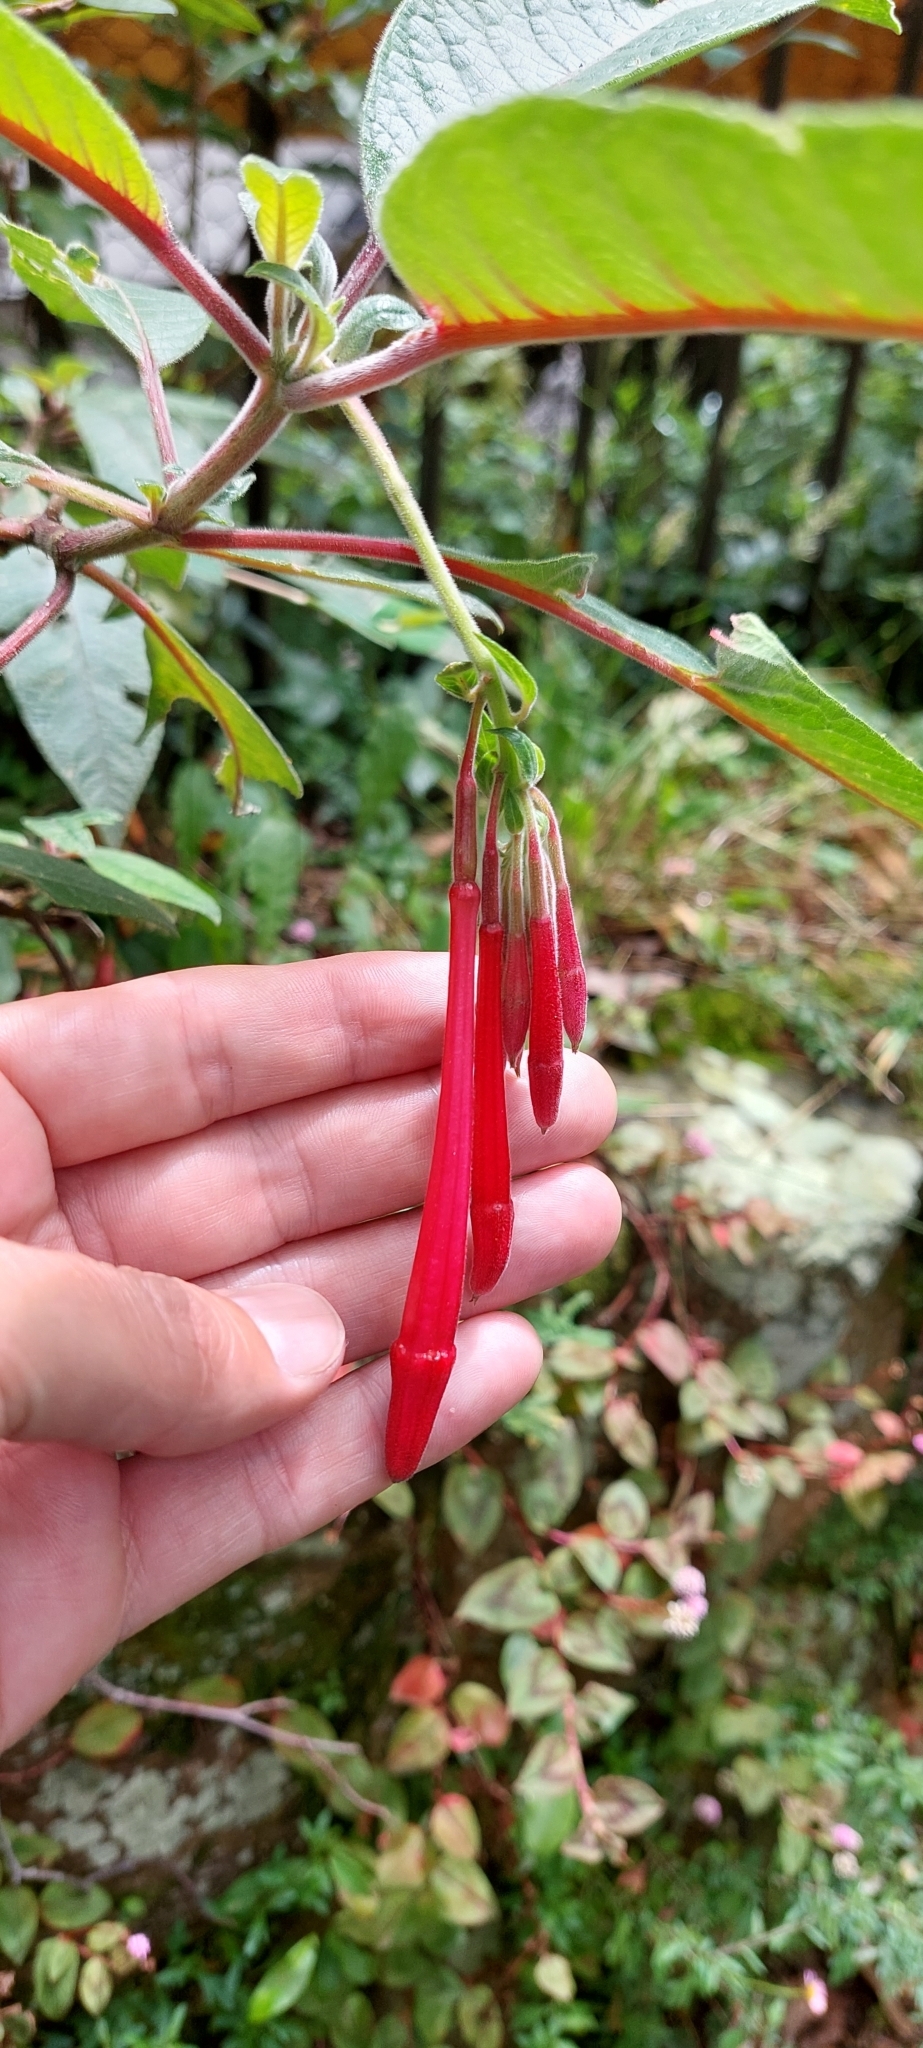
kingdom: Plantae
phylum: Tracheophyta
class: Magnoliopsida
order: Myrtales
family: Onagraceae
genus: Fuchsia
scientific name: Fuchsia boliviana
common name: Bolivian fuchsia
